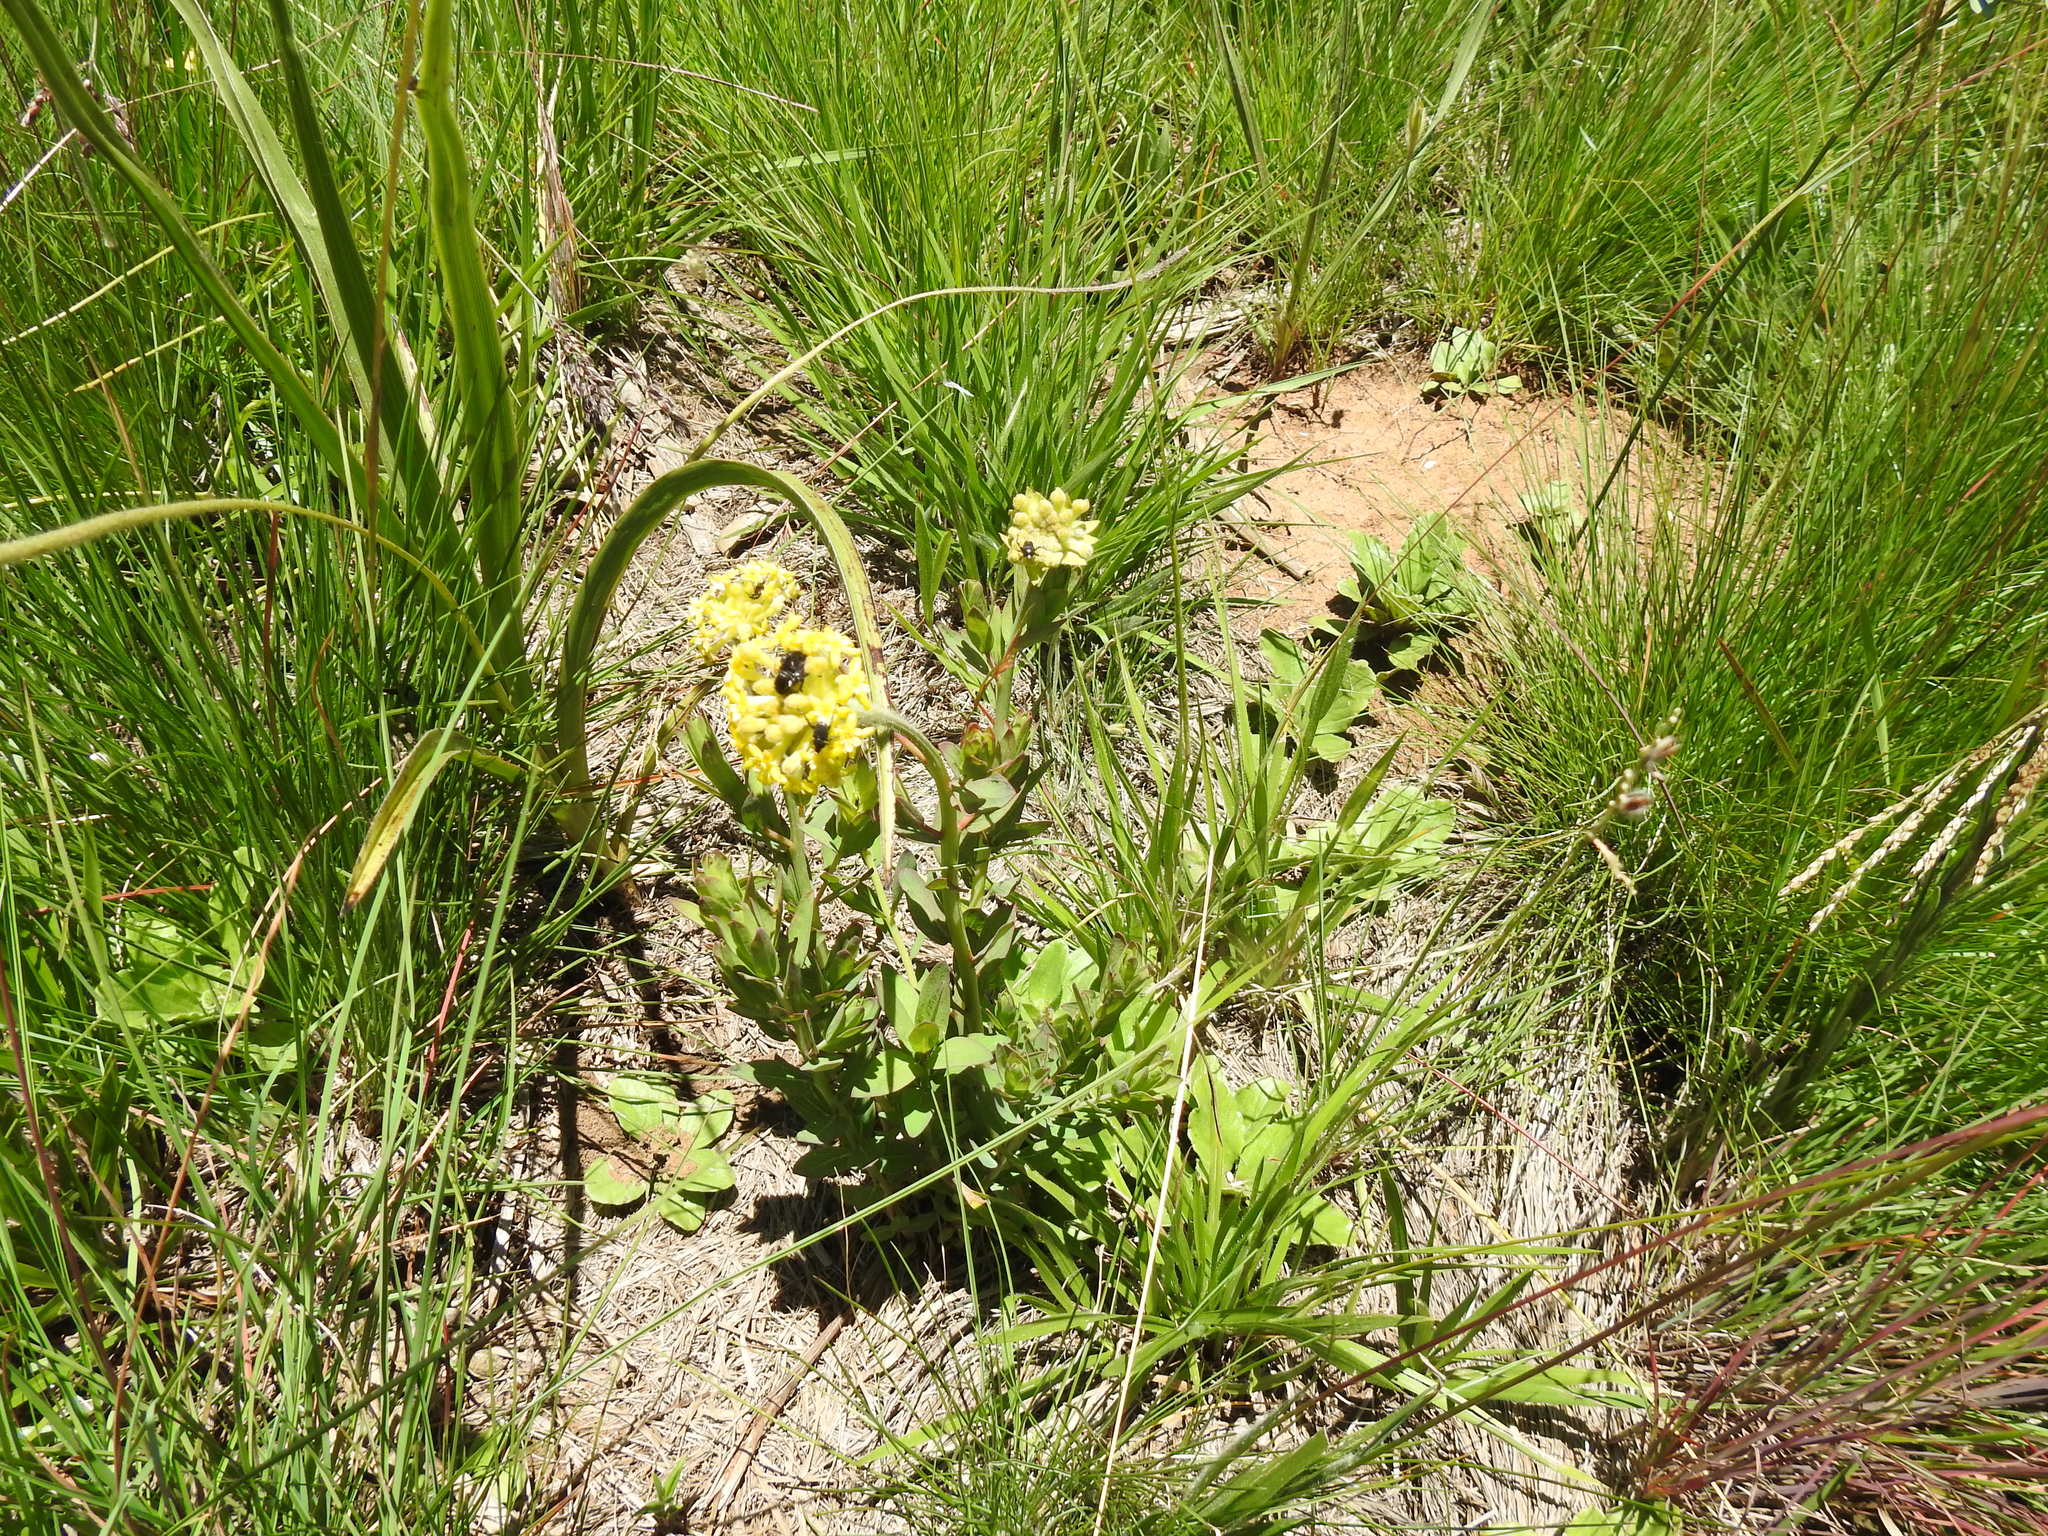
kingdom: Plantae
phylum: Tracheophyta
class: Magnoliopsida
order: Malvales
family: Thymelaeaceae
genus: Gnidia
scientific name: Gnidia kraussiana
